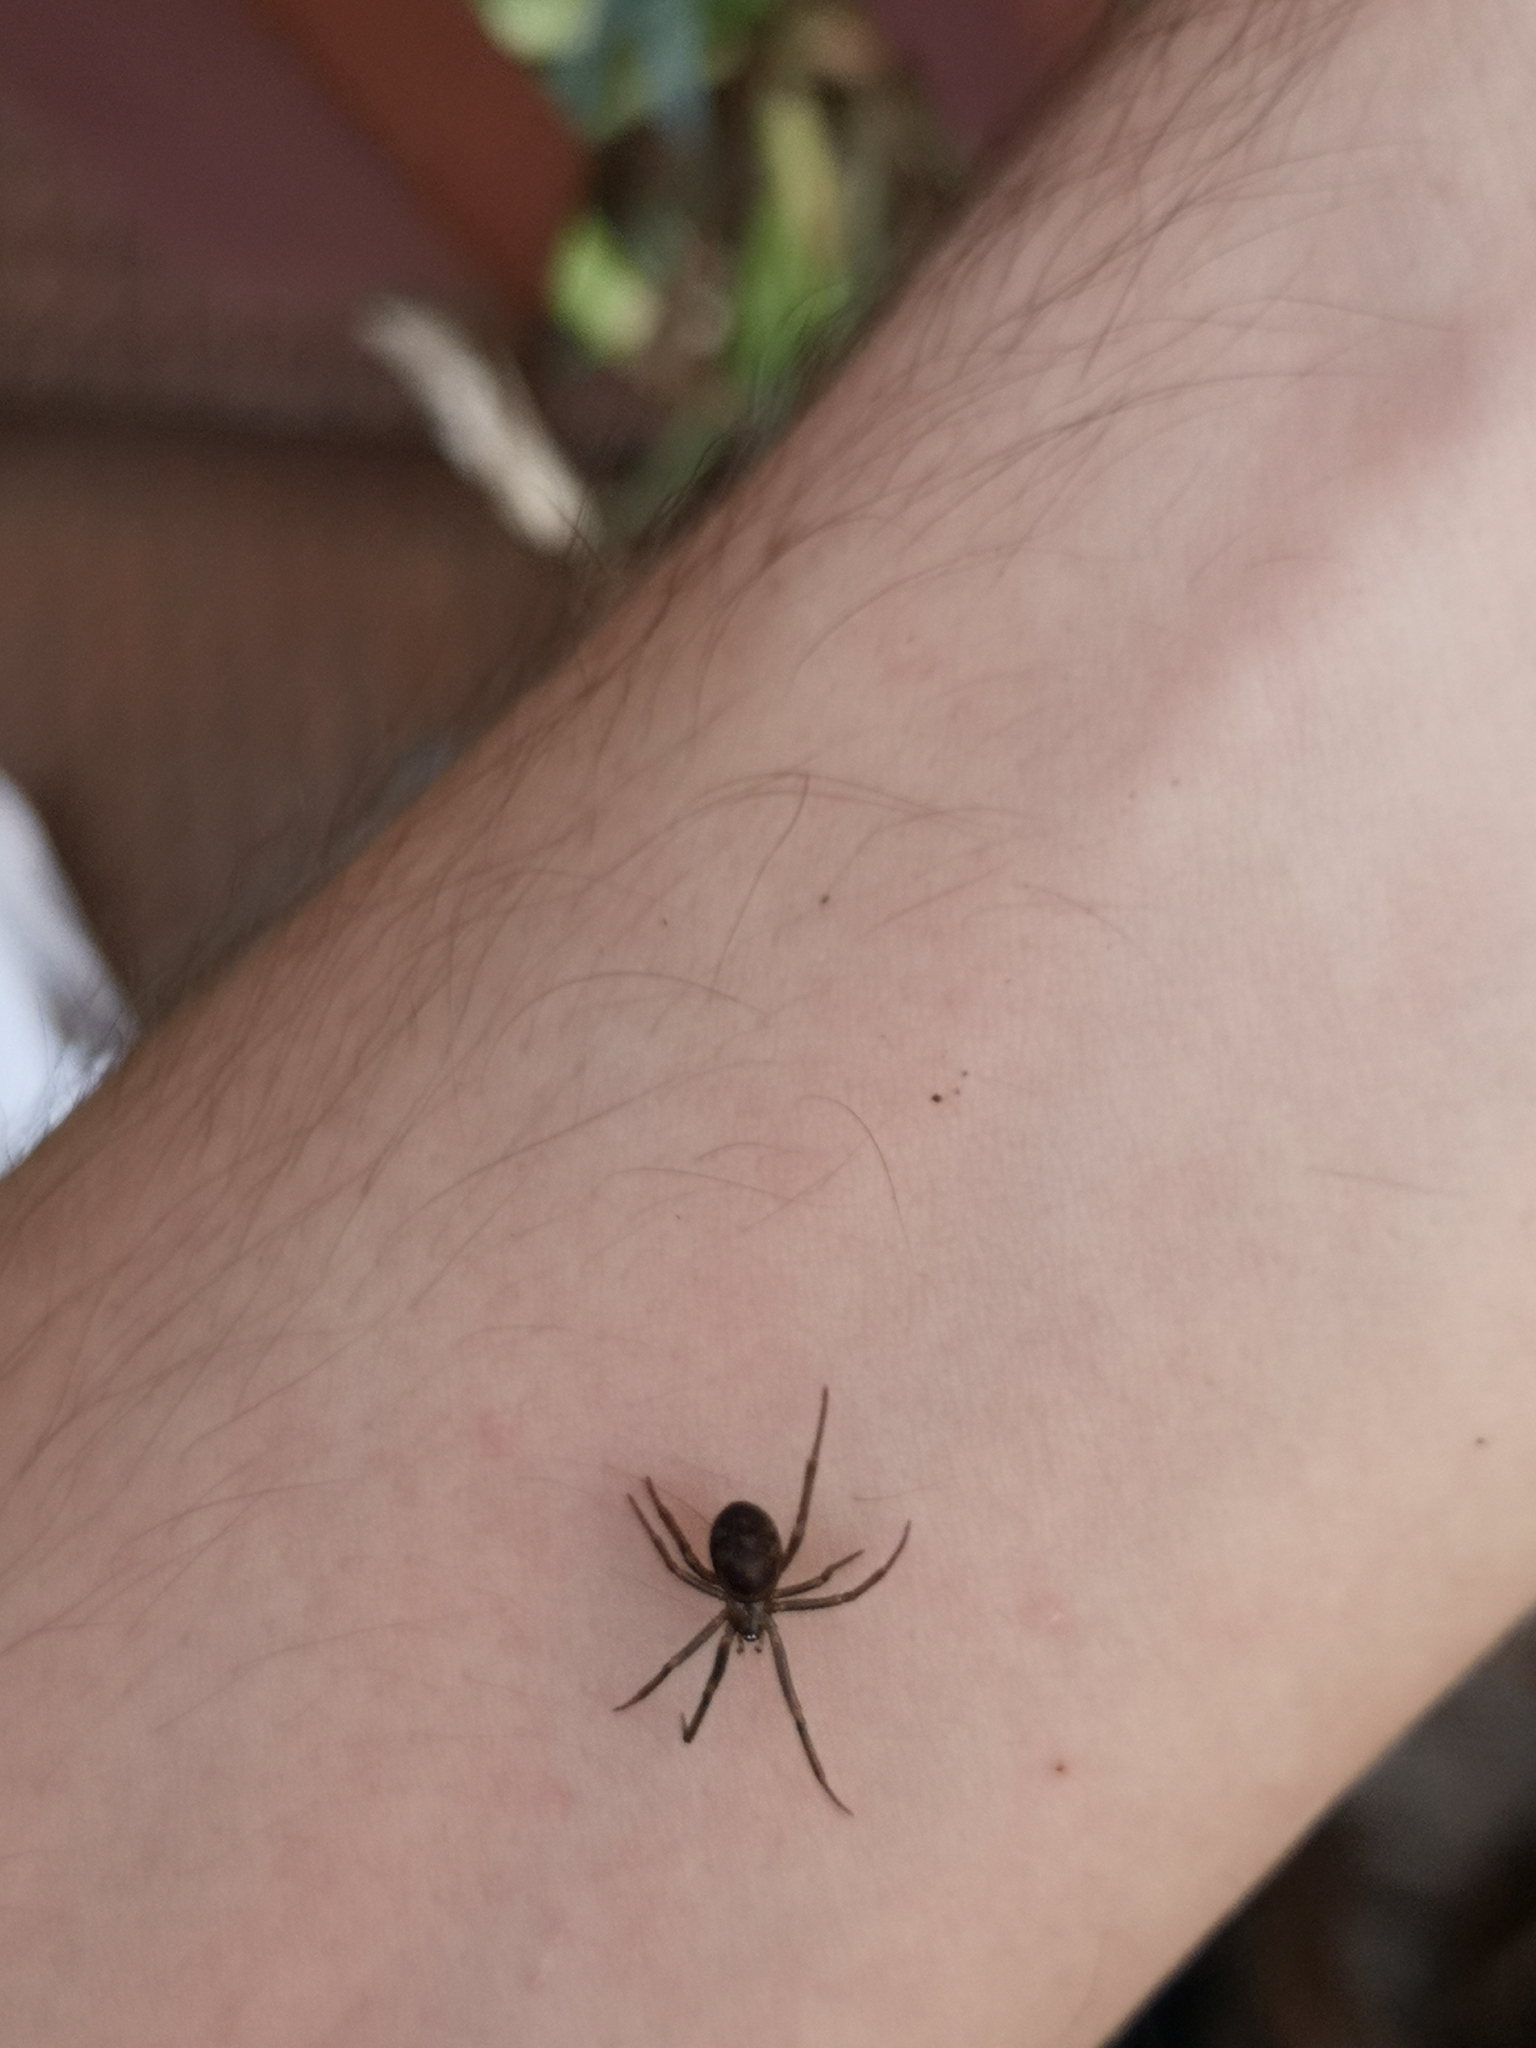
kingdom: Animalia
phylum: Arthropoda
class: Arachnida
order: Araneae
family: Theridiidae
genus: Steatoda
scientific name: Steatoda grossa
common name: False black widow
